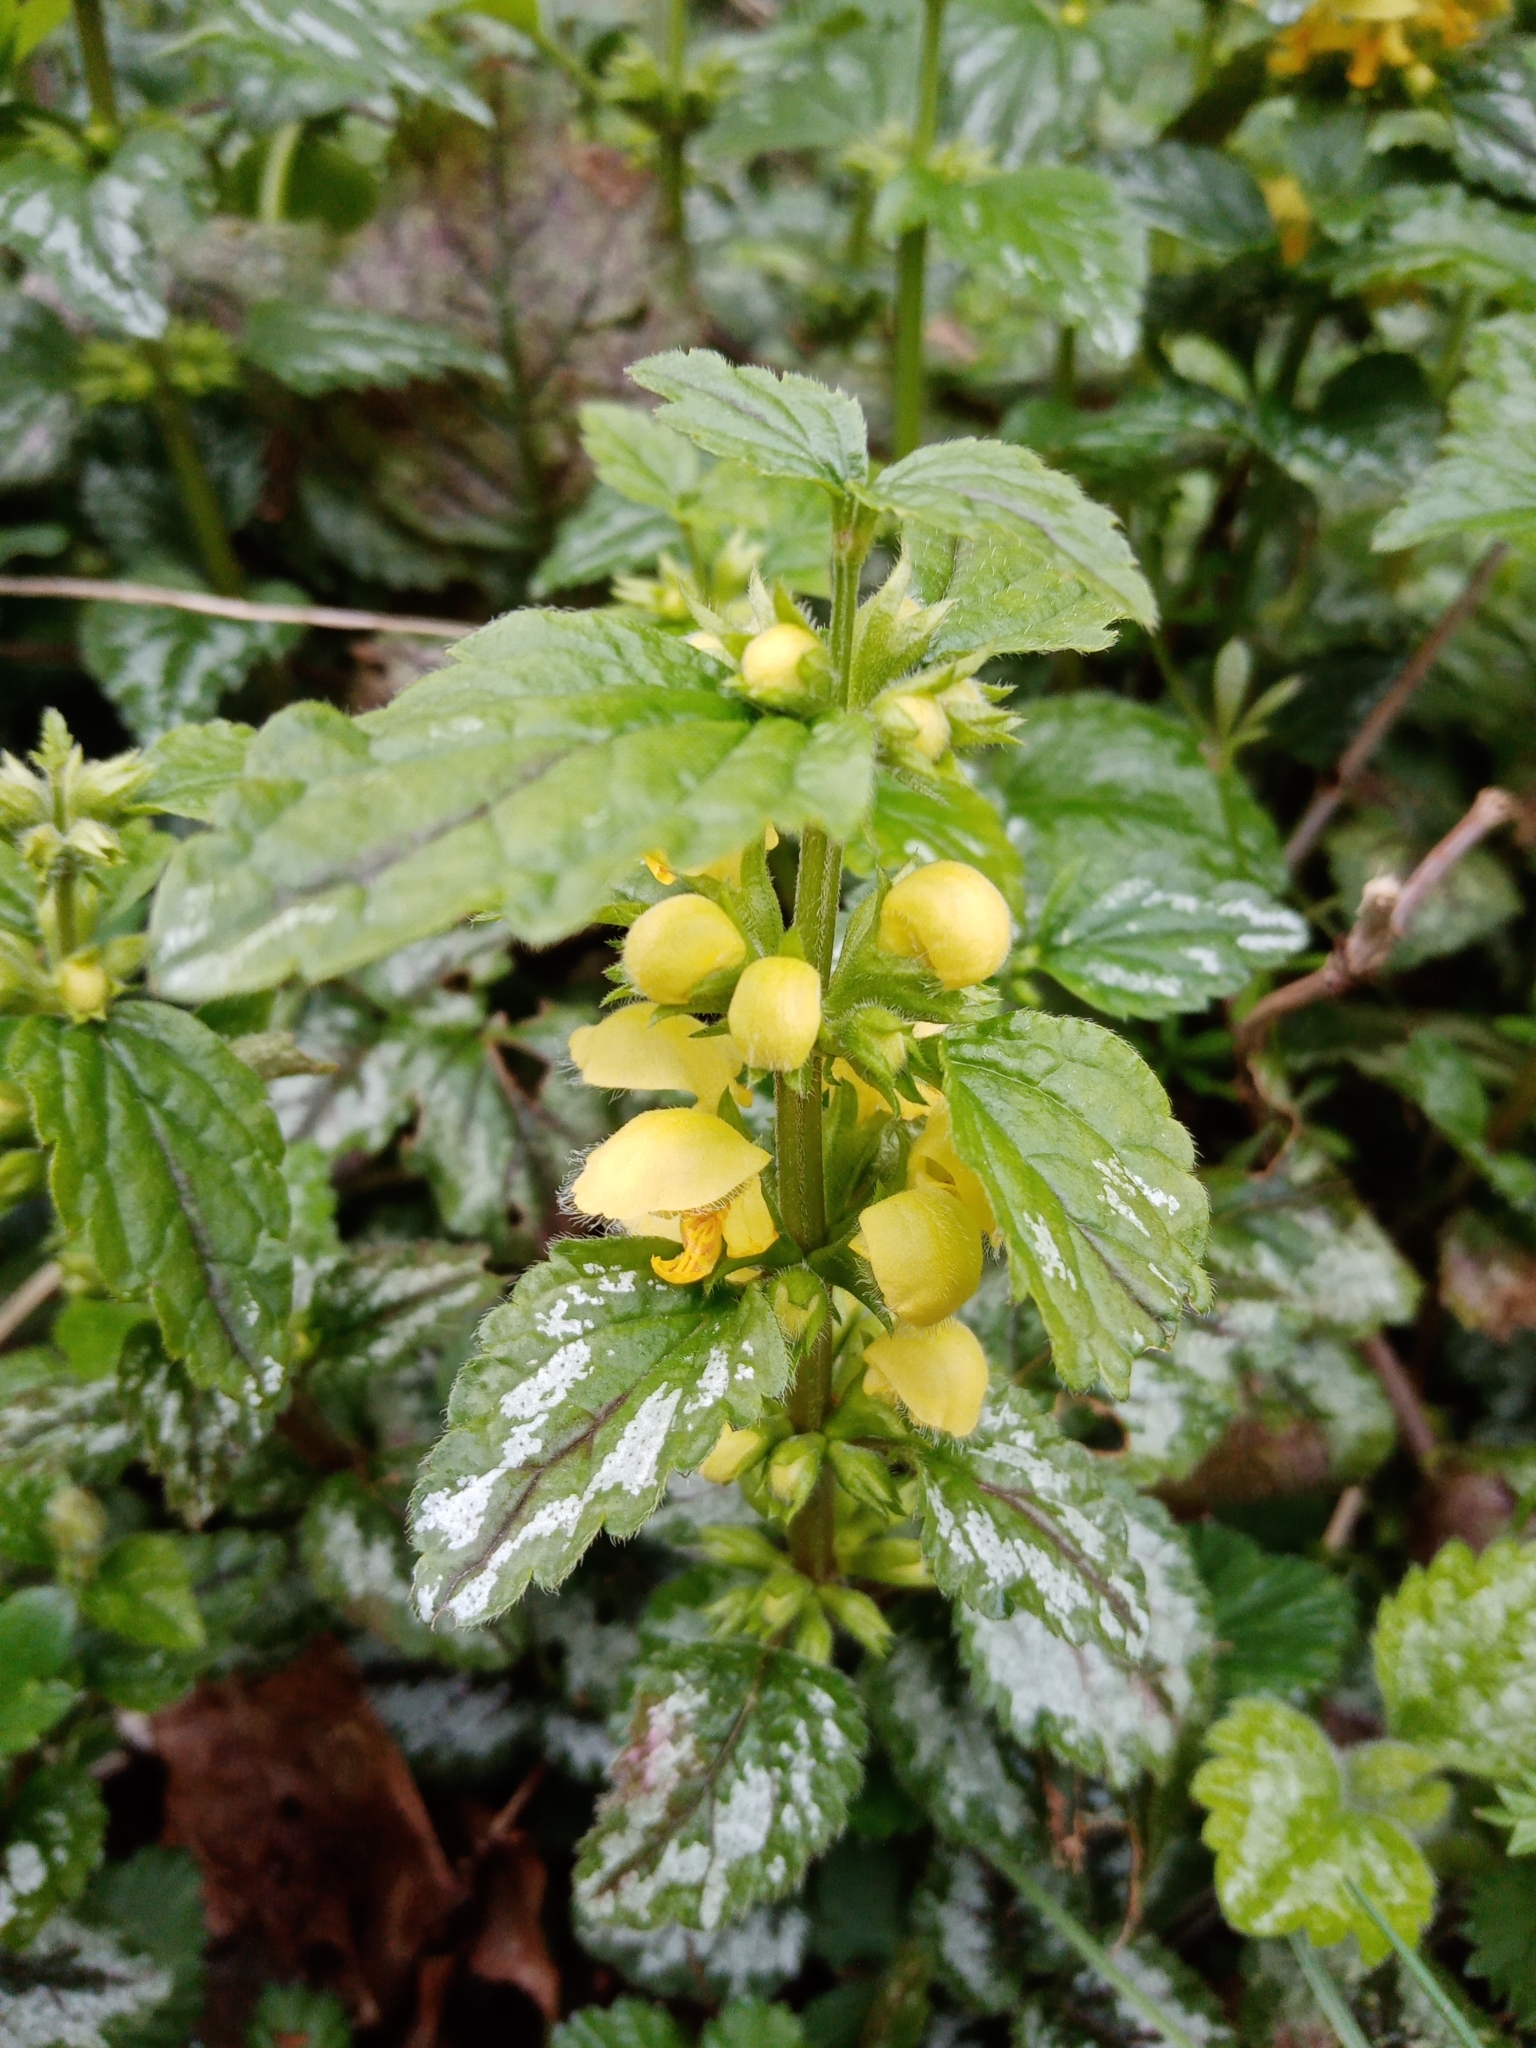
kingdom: Plantae
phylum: Tracheophyta
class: Magnoliopsida
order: Lamiales
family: Lamiaceae
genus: Lamium
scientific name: Lamium galeobdolon
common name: Yellow archangel
